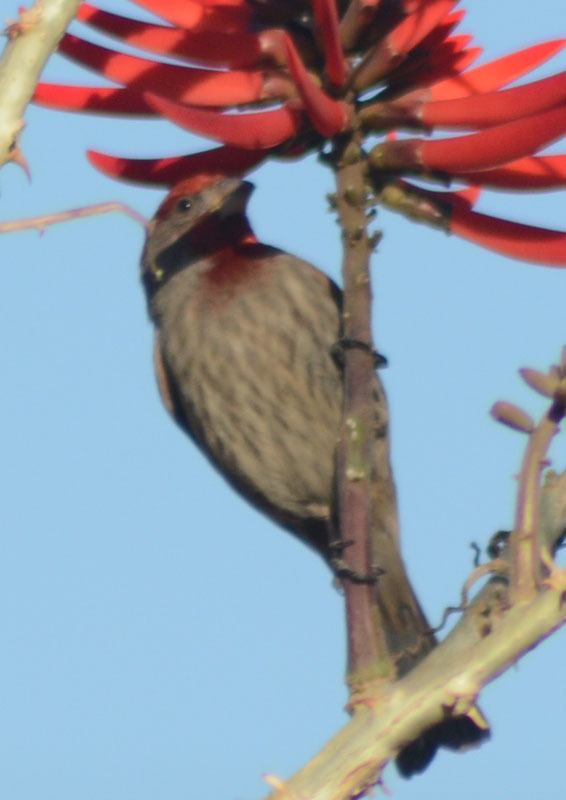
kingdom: Animalia
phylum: Chordata
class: Aves
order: Passeriformes
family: Fringillidae
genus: Haemorhous
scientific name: Haemorhous mexicanus
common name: House finch
